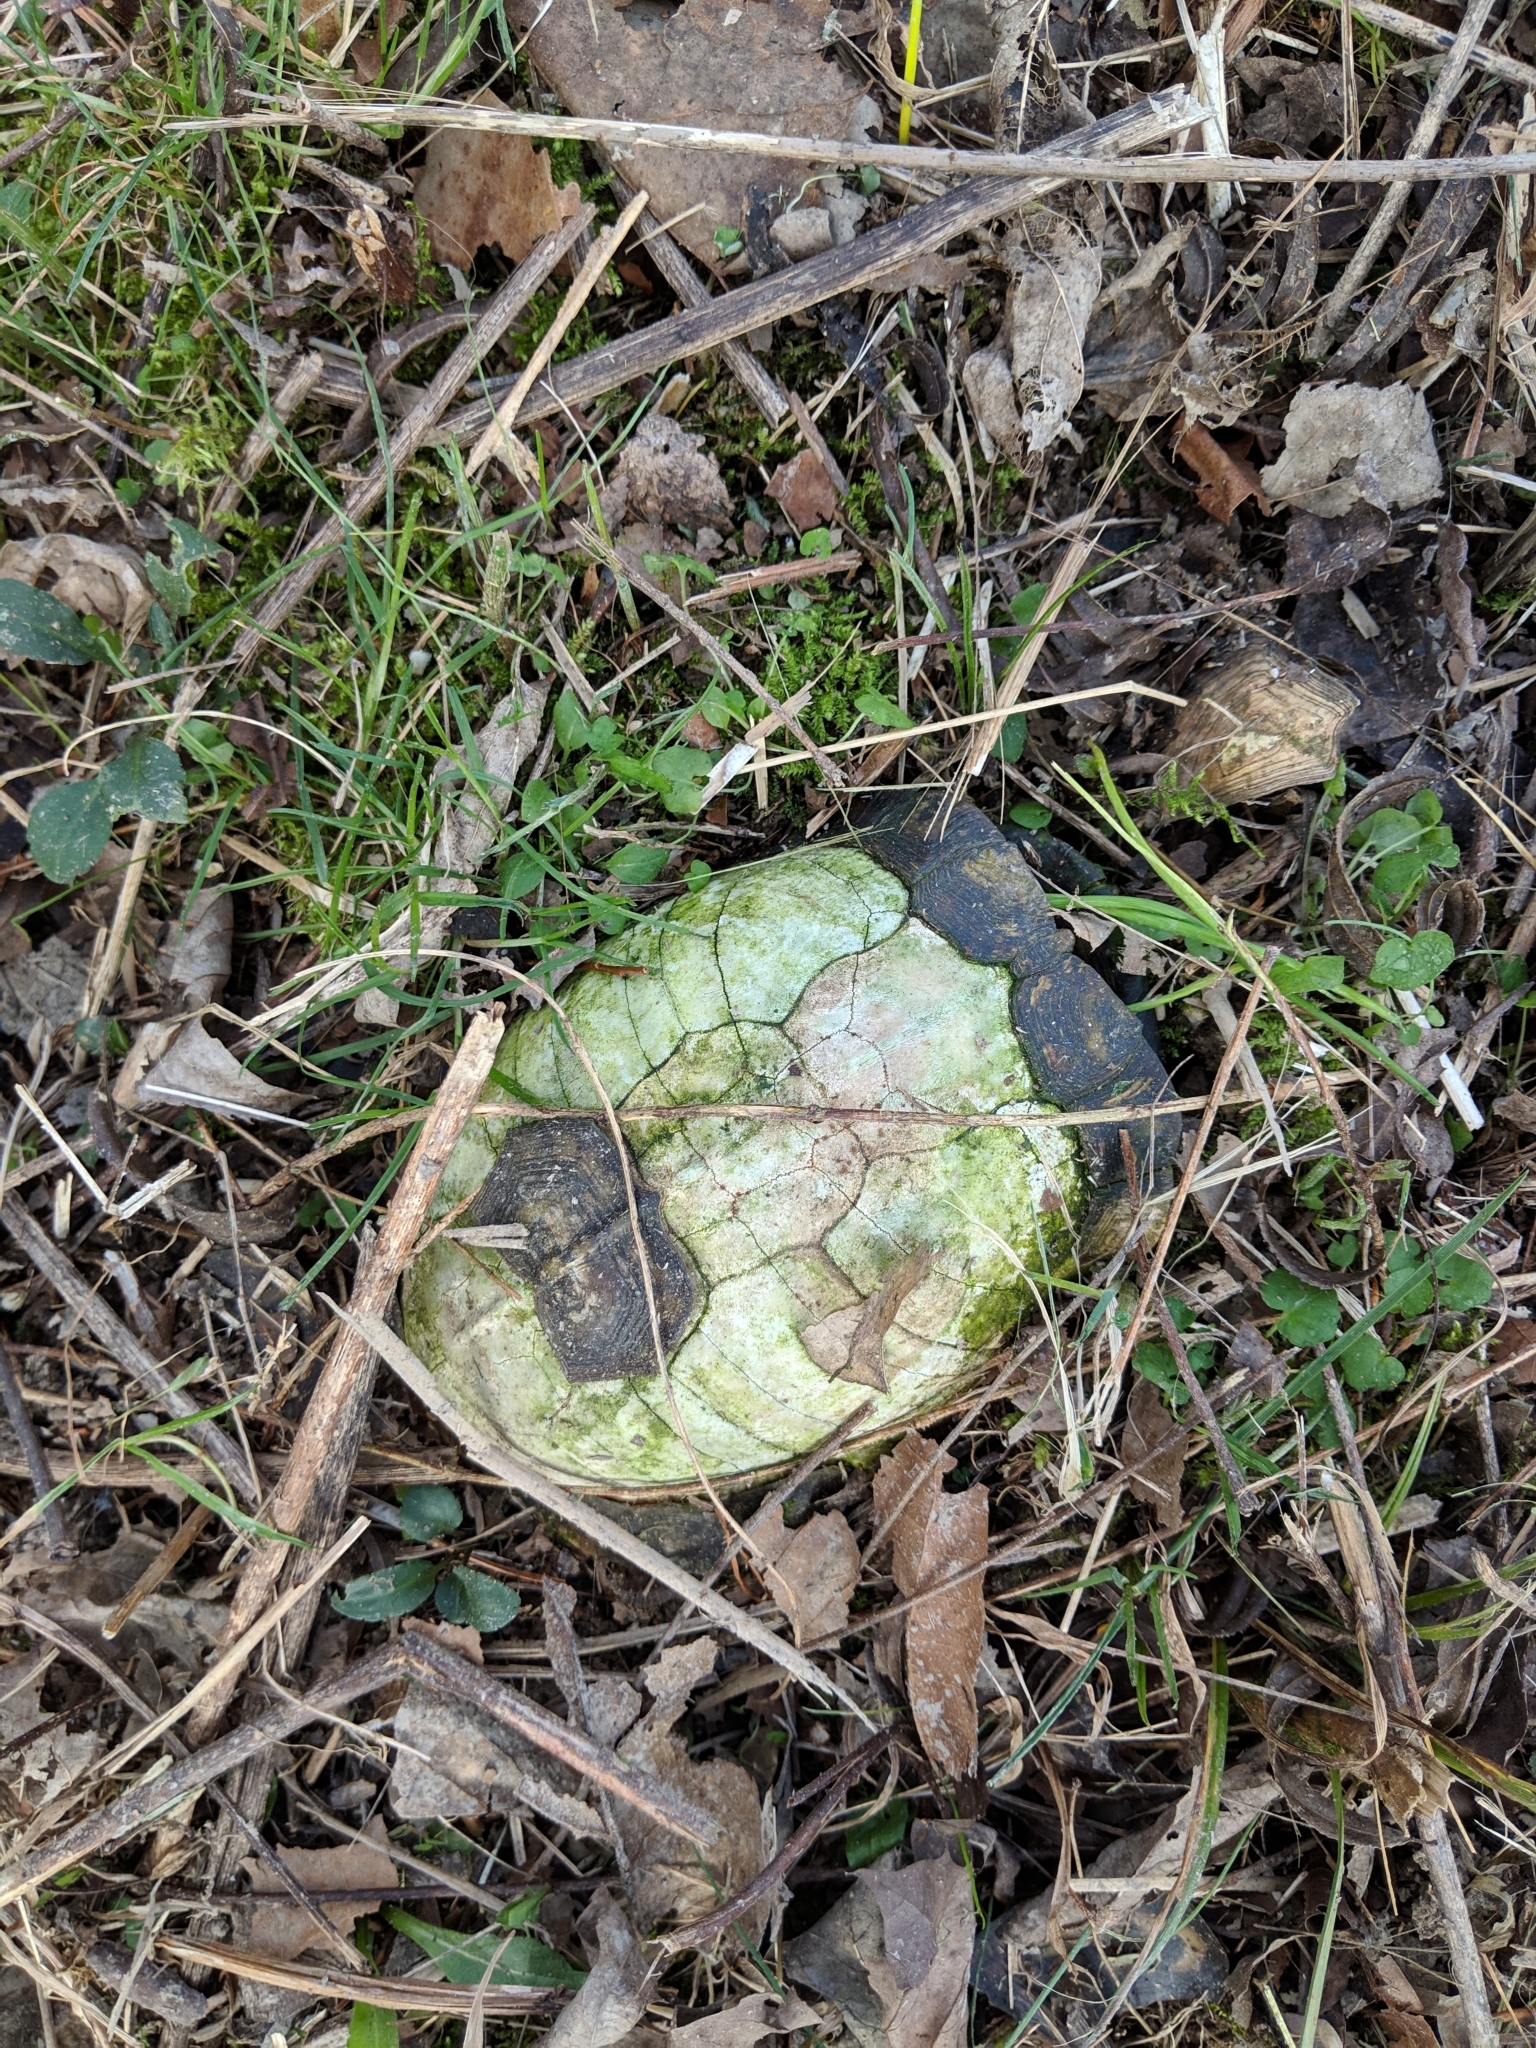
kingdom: Animalia
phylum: Chordata
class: Testudines
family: Emydidae
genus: Terrapene
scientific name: Terrapene carolina
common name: Common box turtle
